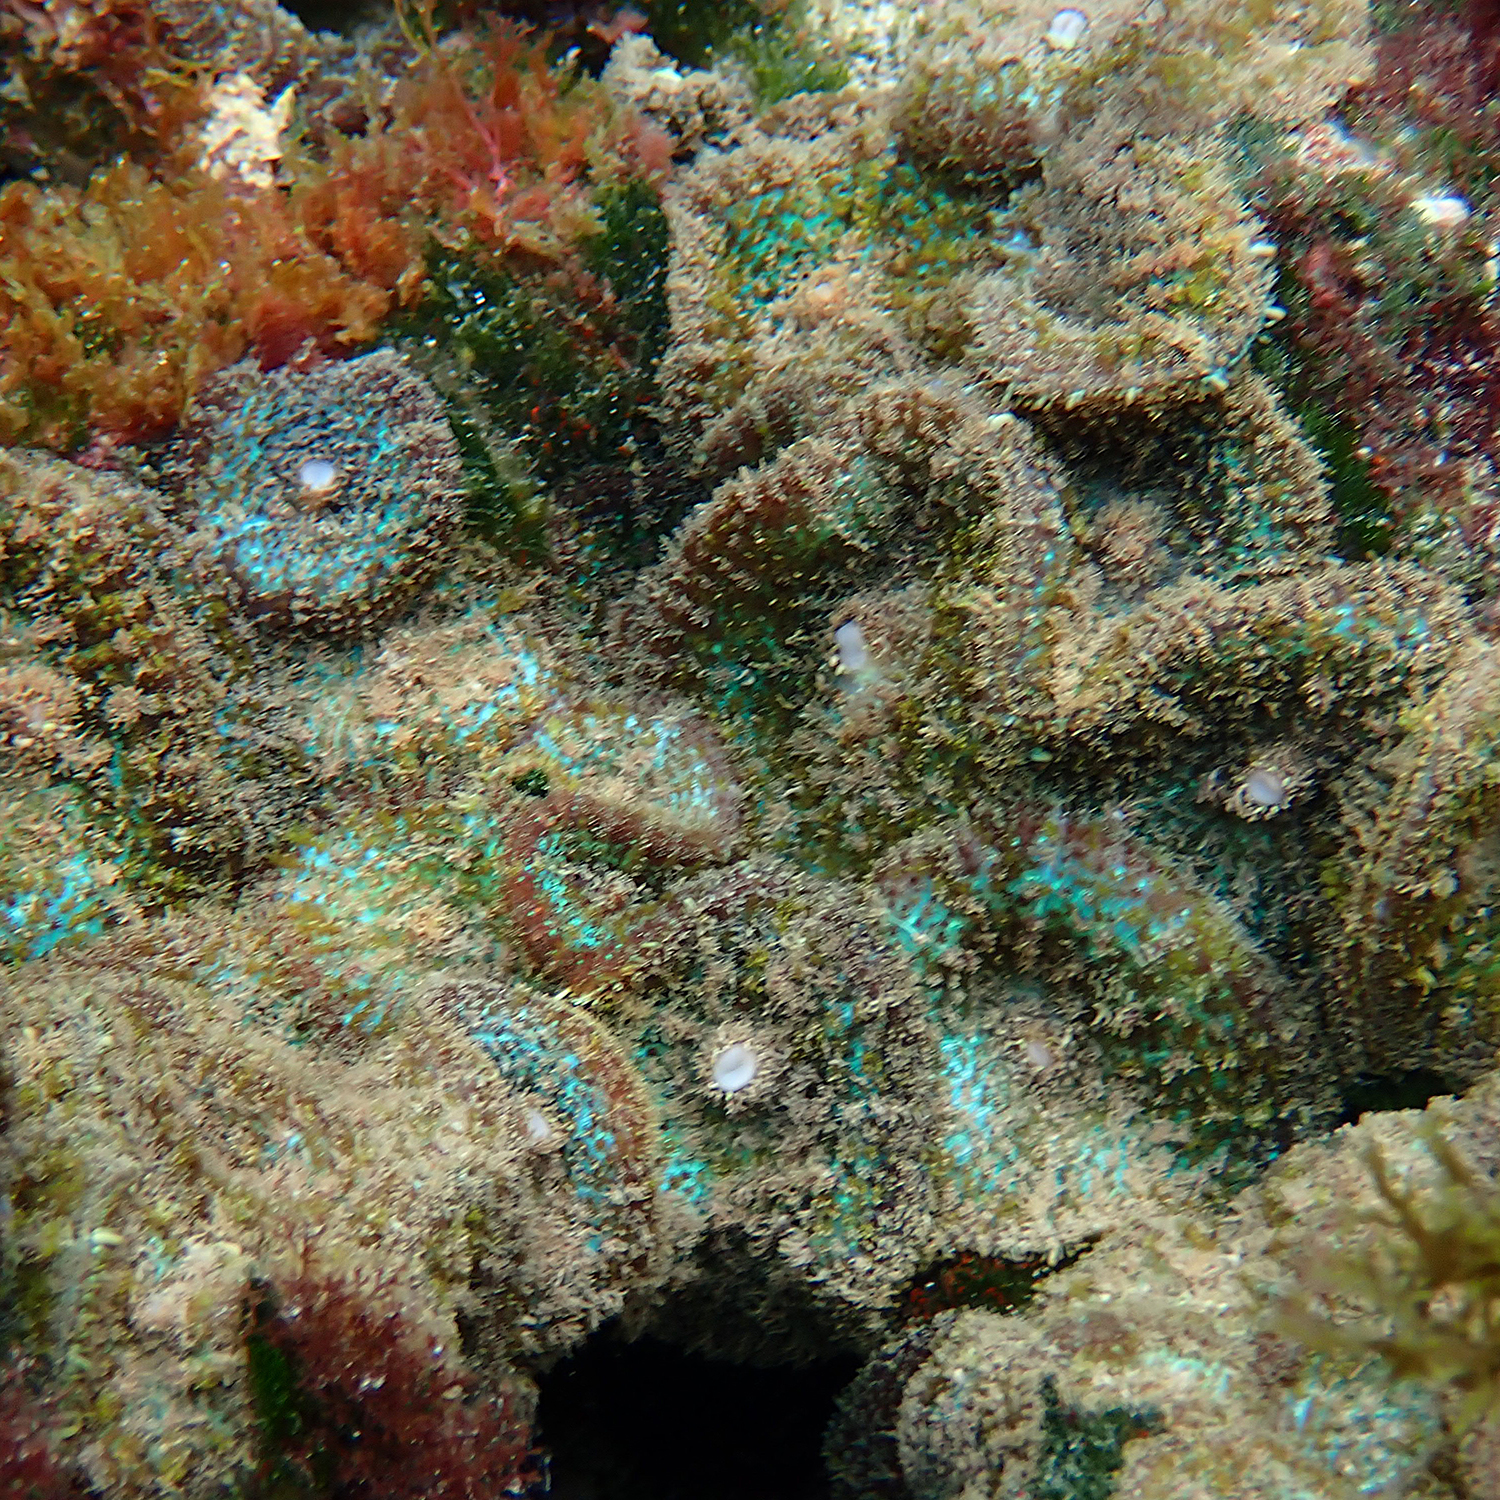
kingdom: Animalia
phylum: Cnidaria
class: Anthozoa
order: Corallimorpharia
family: Discosomidae
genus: Rhodactis
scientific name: Rhodactis bryoides
